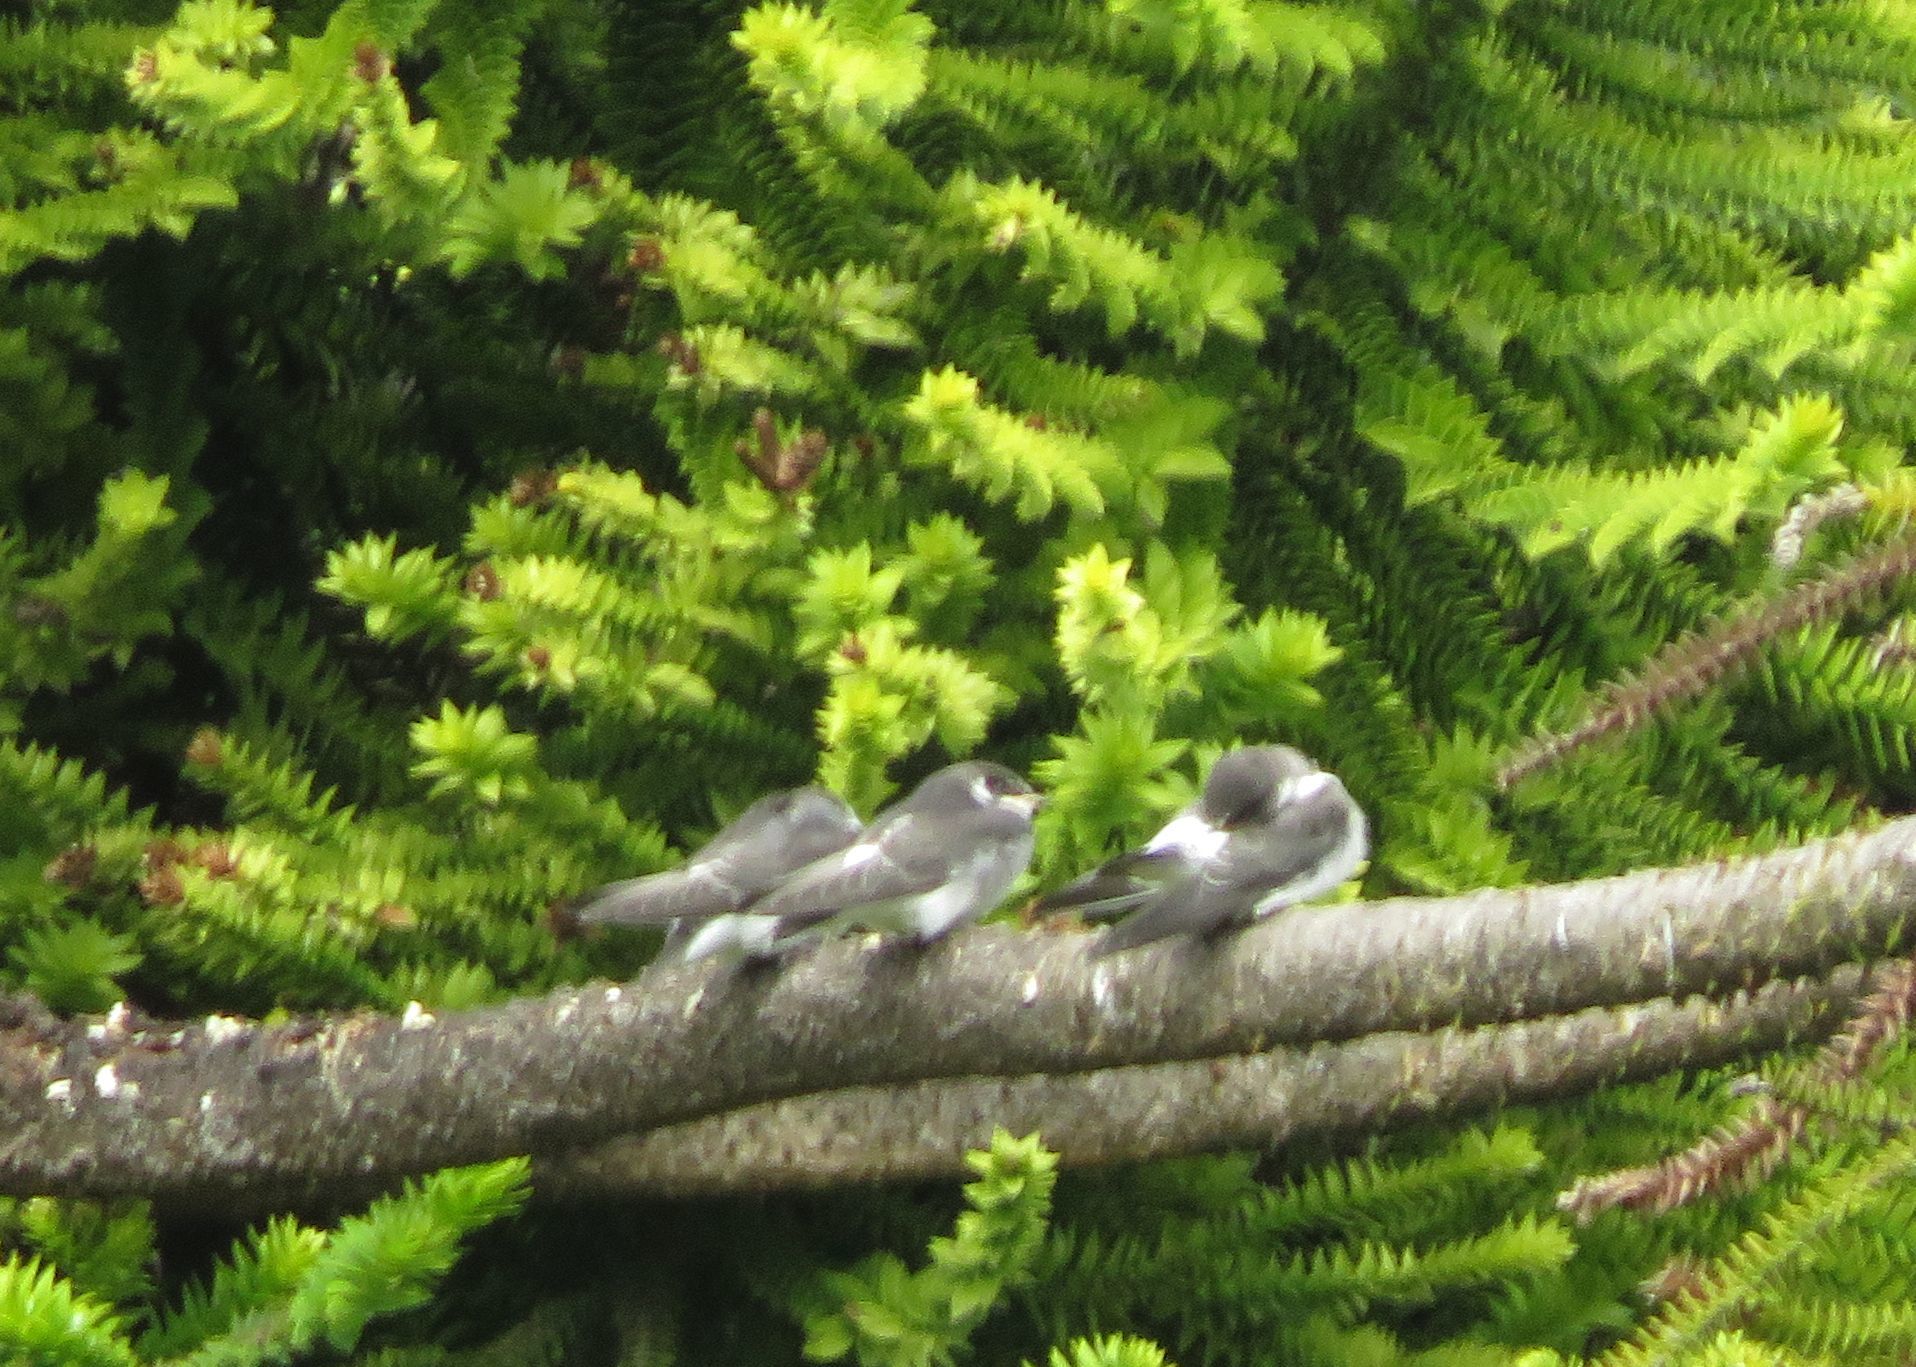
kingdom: Animalia
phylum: Chordata
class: Aves
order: Passeriformes
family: Hirundinidae
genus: Tachycineta
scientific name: Tachycineta leucorrhoa
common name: White-rumped swallow
